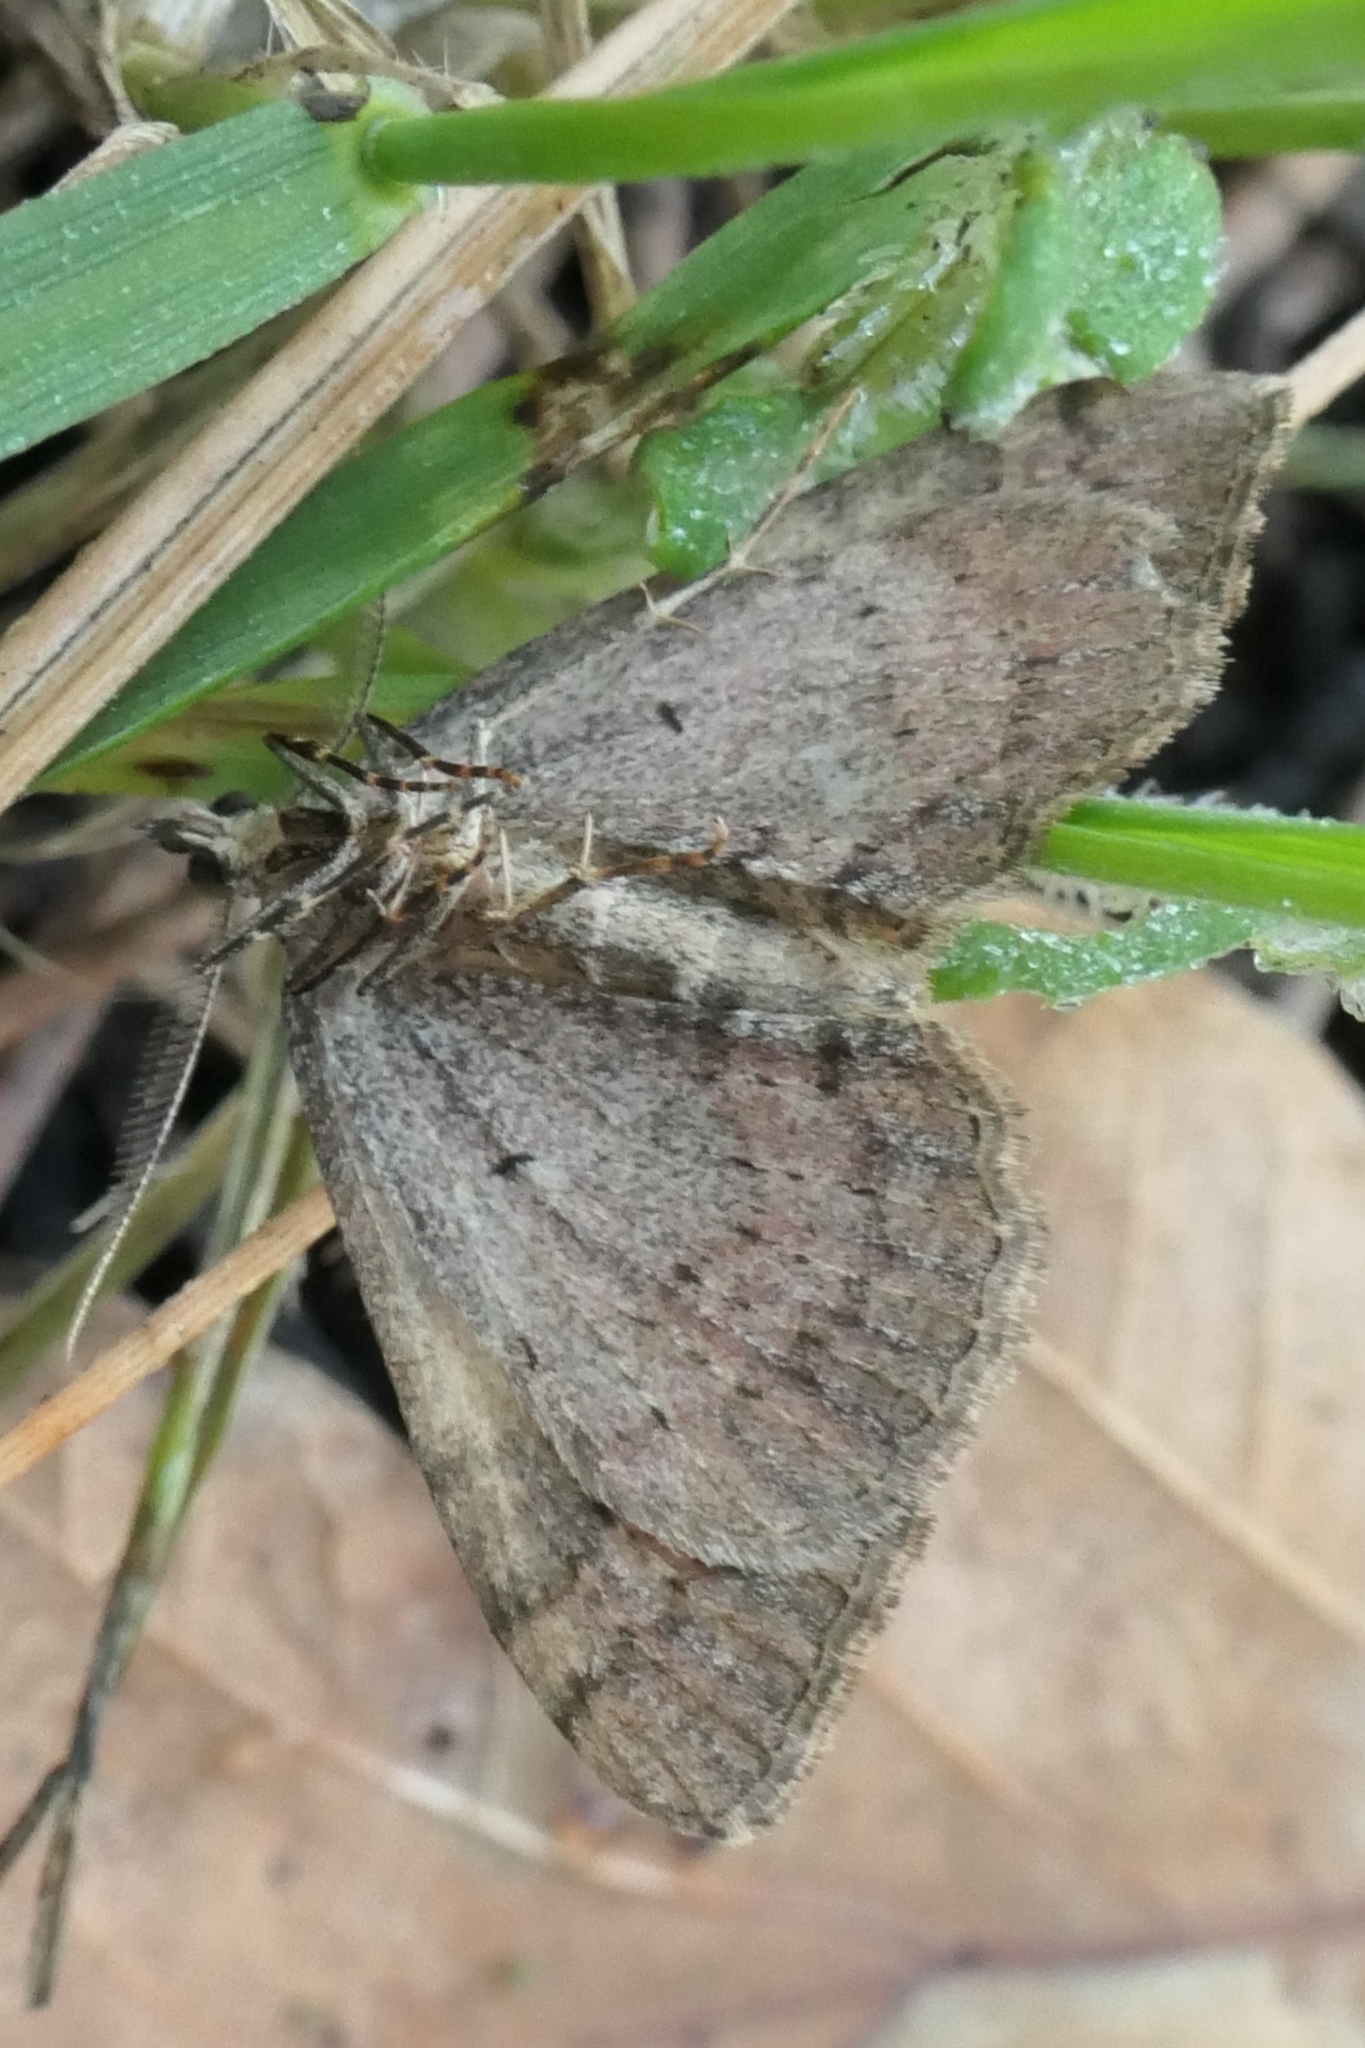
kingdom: Animalia
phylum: Arthropoda
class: Insecta
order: Lepidoptera
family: Geometridae
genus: Epyaxa
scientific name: Epyaxa rosearia
